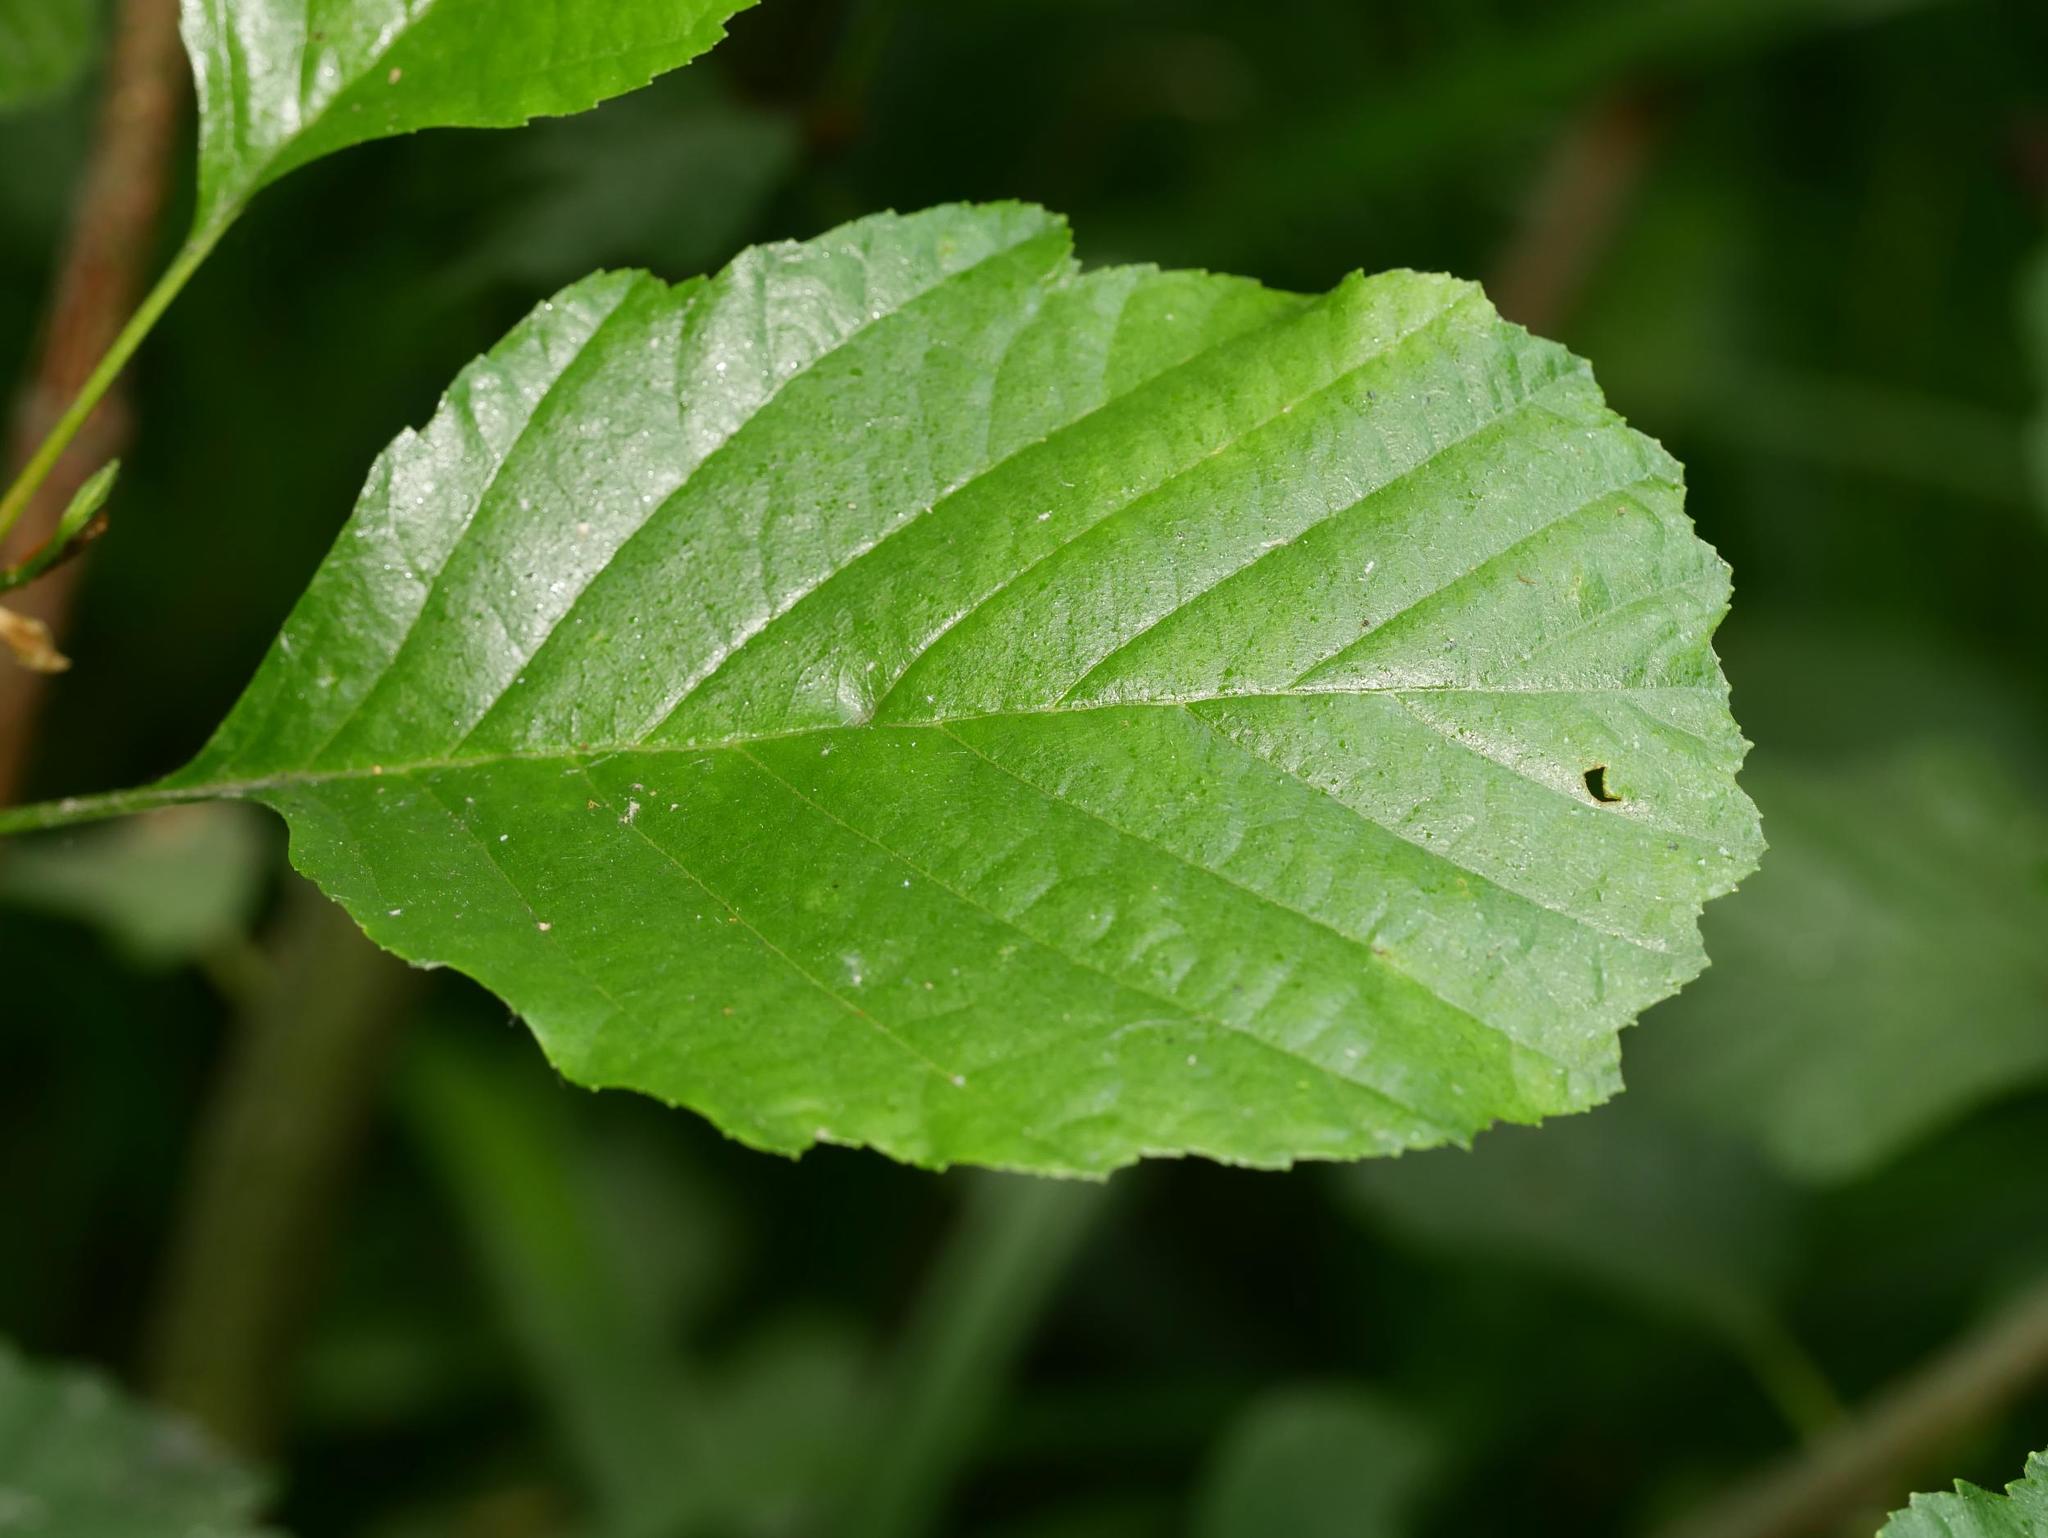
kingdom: Plantae
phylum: Tracheophyta
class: Magnoliopsida
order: Fagales
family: Betulaceae
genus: Alnus
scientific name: Alnus glutinosa
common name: Black alder
